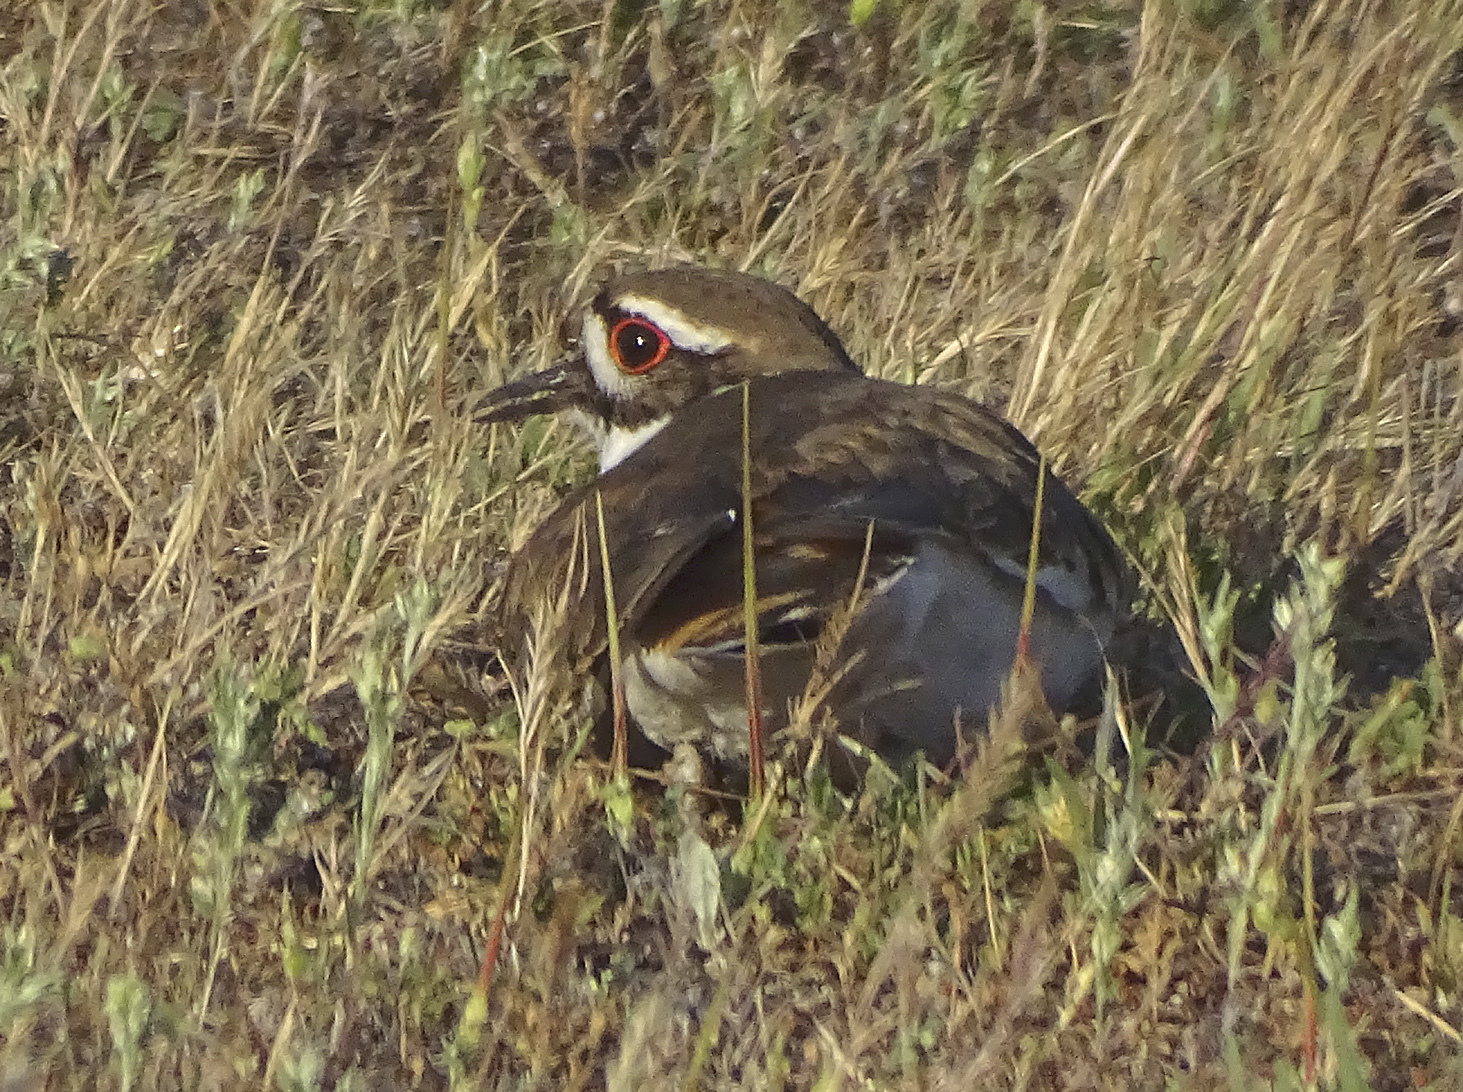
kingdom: Animalia
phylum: Chordata
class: Aves
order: Charadriiformes
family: Charadriidae
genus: Charadrius
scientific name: Charadrius vociferus
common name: Killdeer
